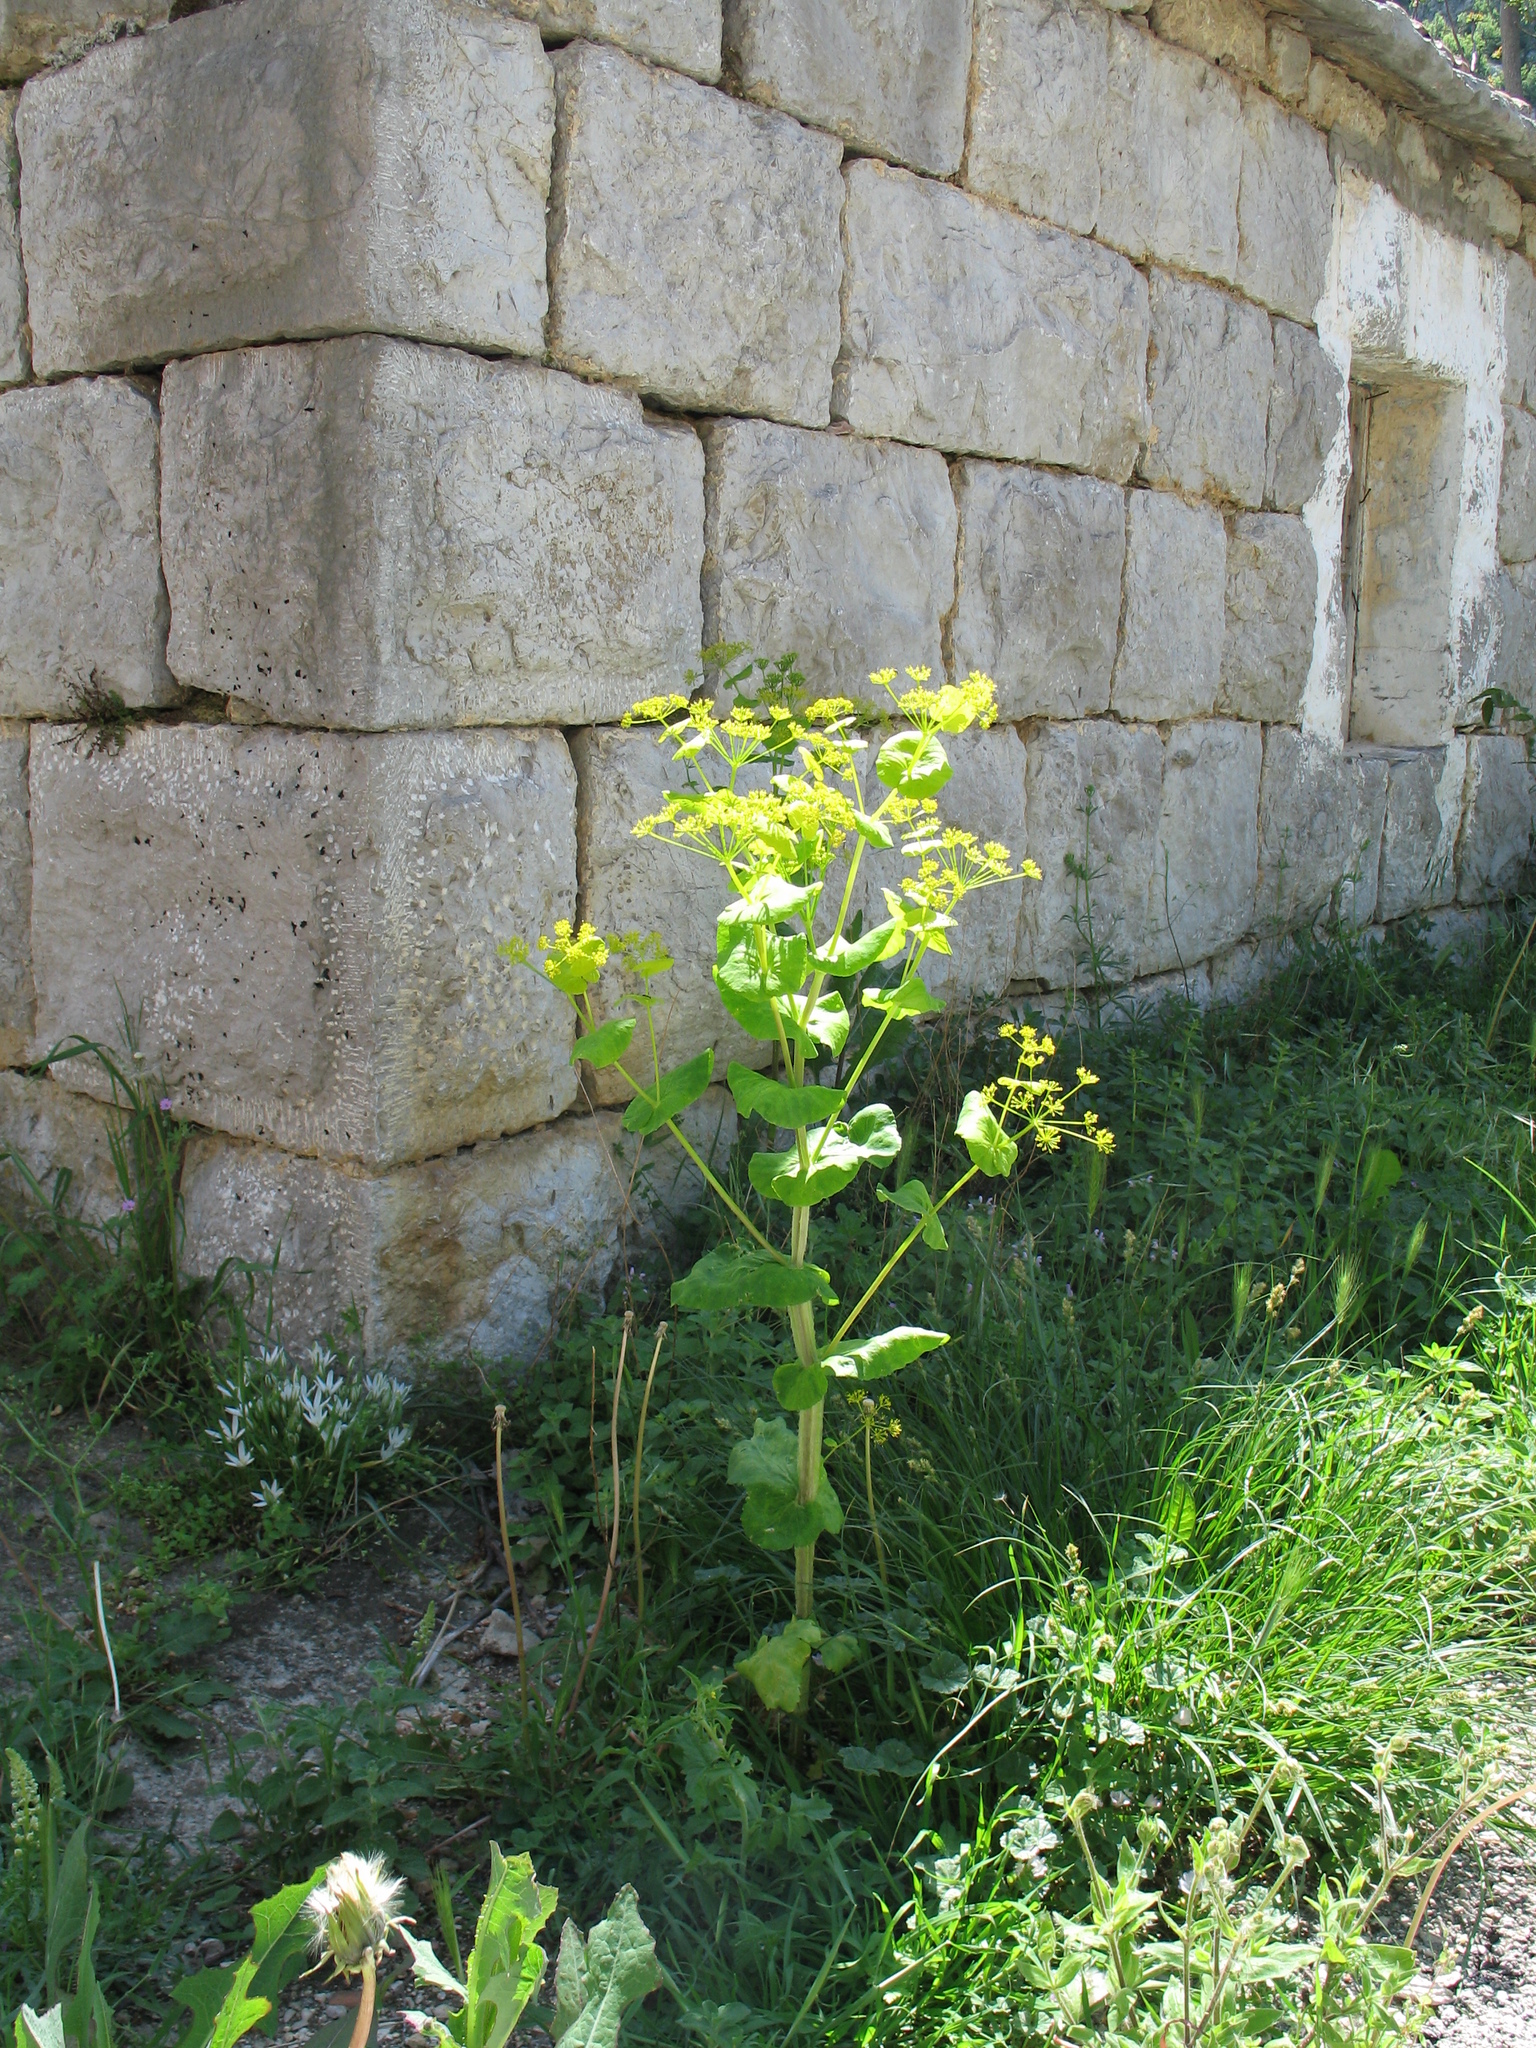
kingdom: Plantae
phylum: Tracheophyta
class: Magnoliopsida
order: Apiales
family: Apiaceae
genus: Smyrnium
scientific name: Smyrnium perfoliatum
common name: Perfoliate alexanders
